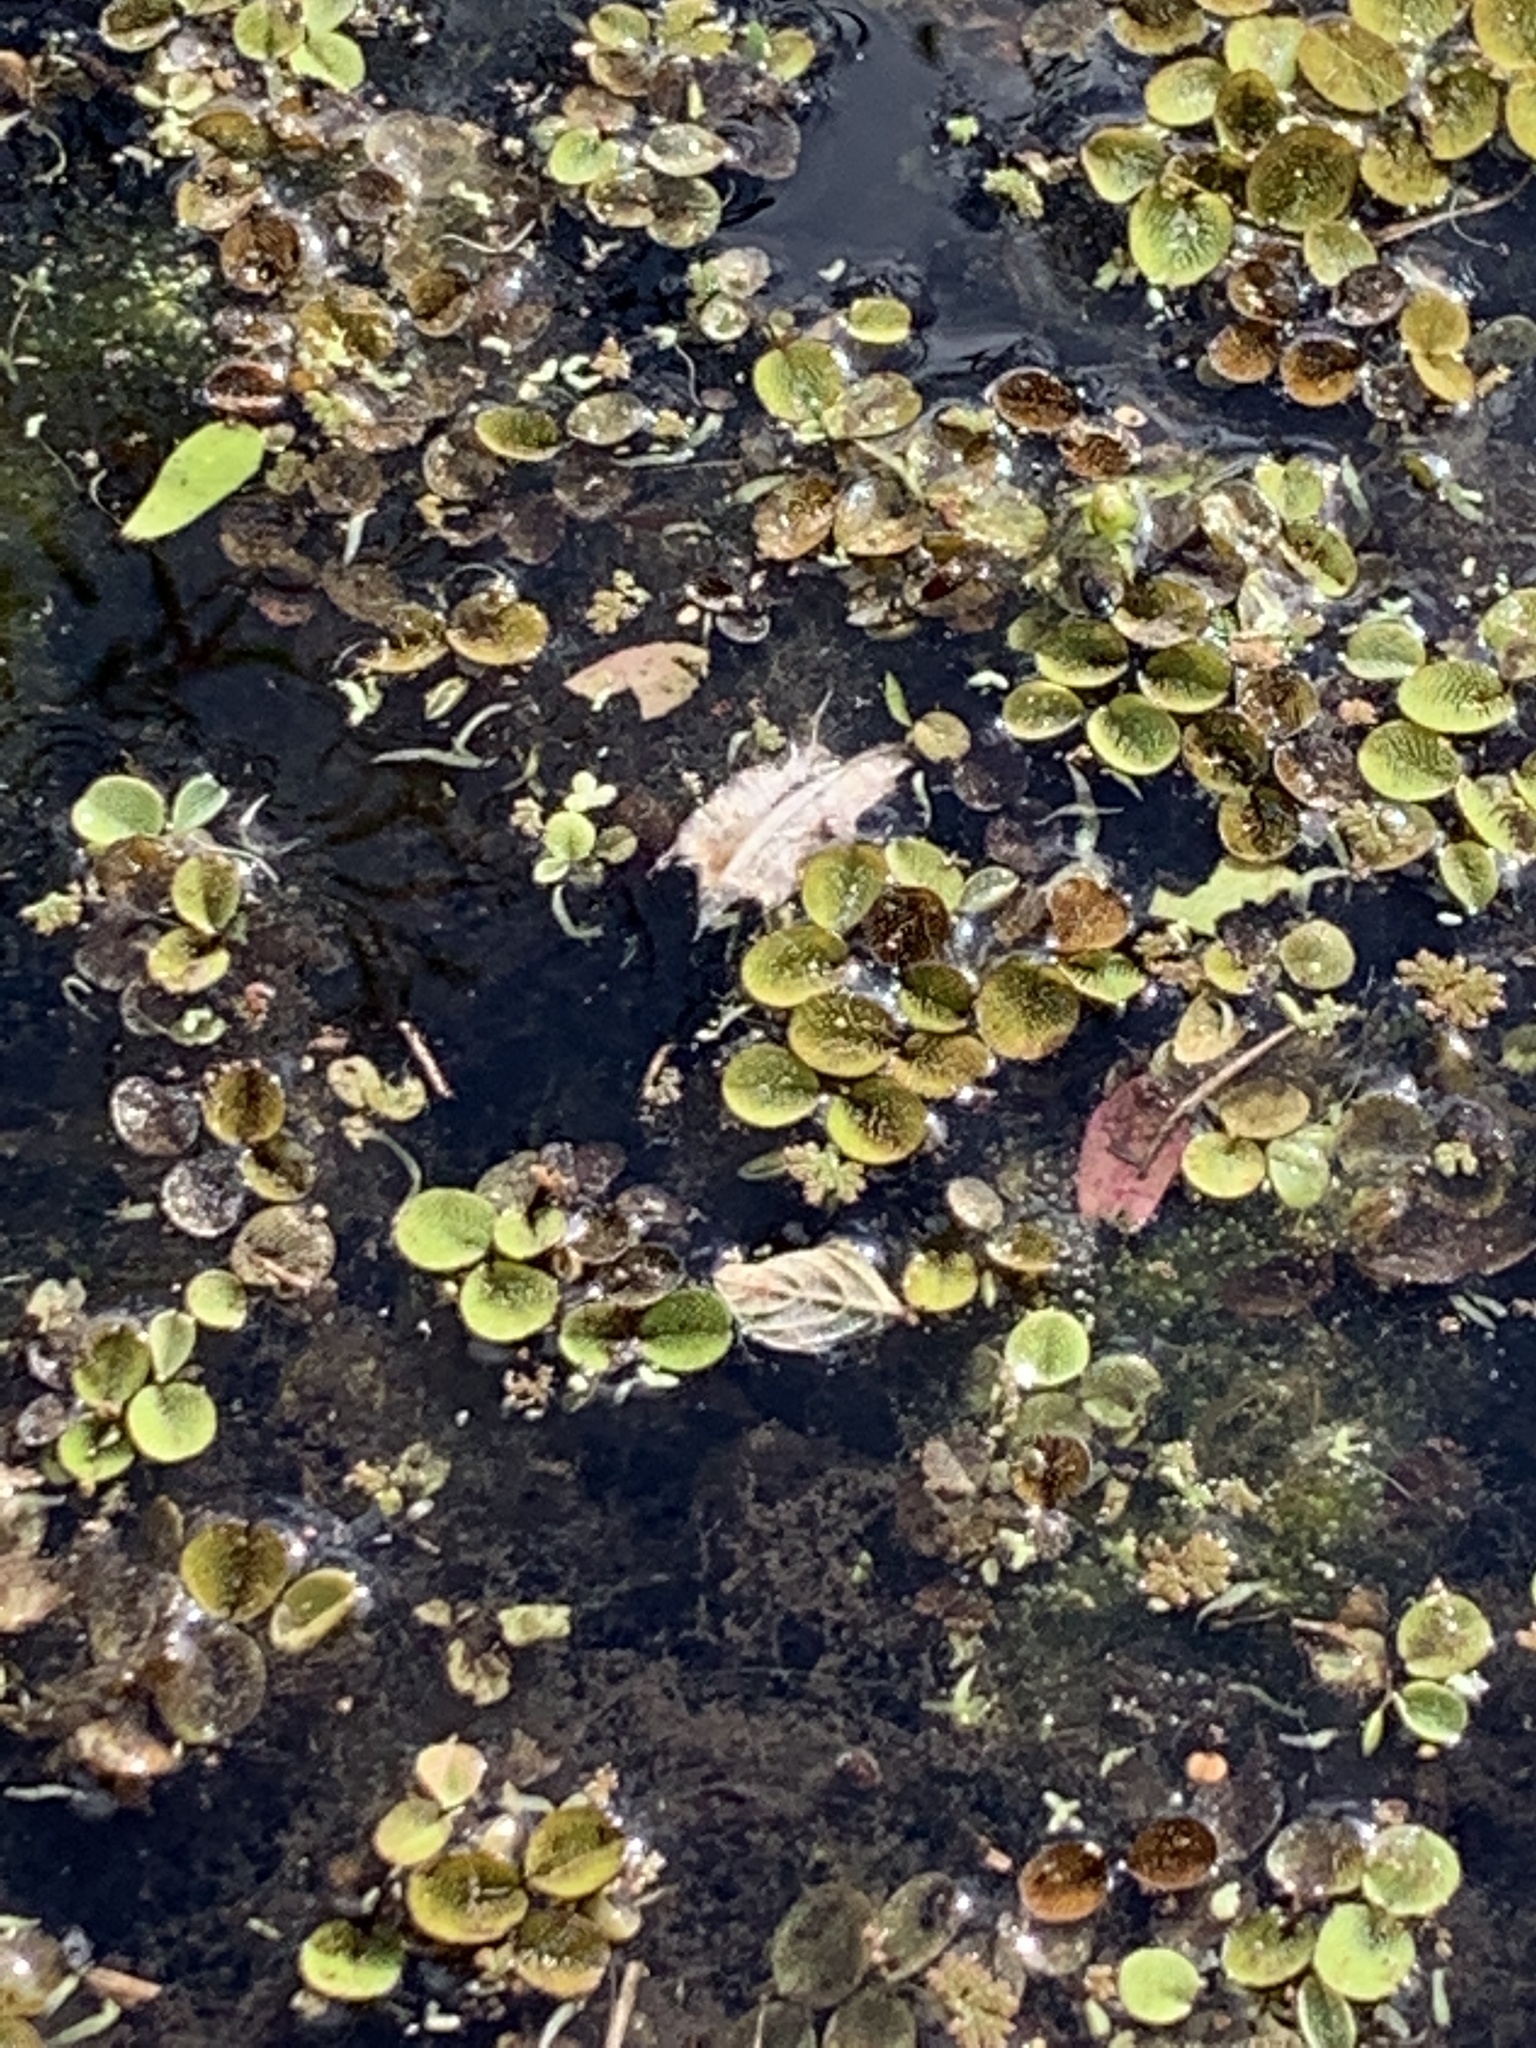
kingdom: Plantae
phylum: Tracheophyta
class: Polypodiopsida
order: Salviniales
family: Salviniaceae
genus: Salvinia
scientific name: Salvinia minima
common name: Water spangles
